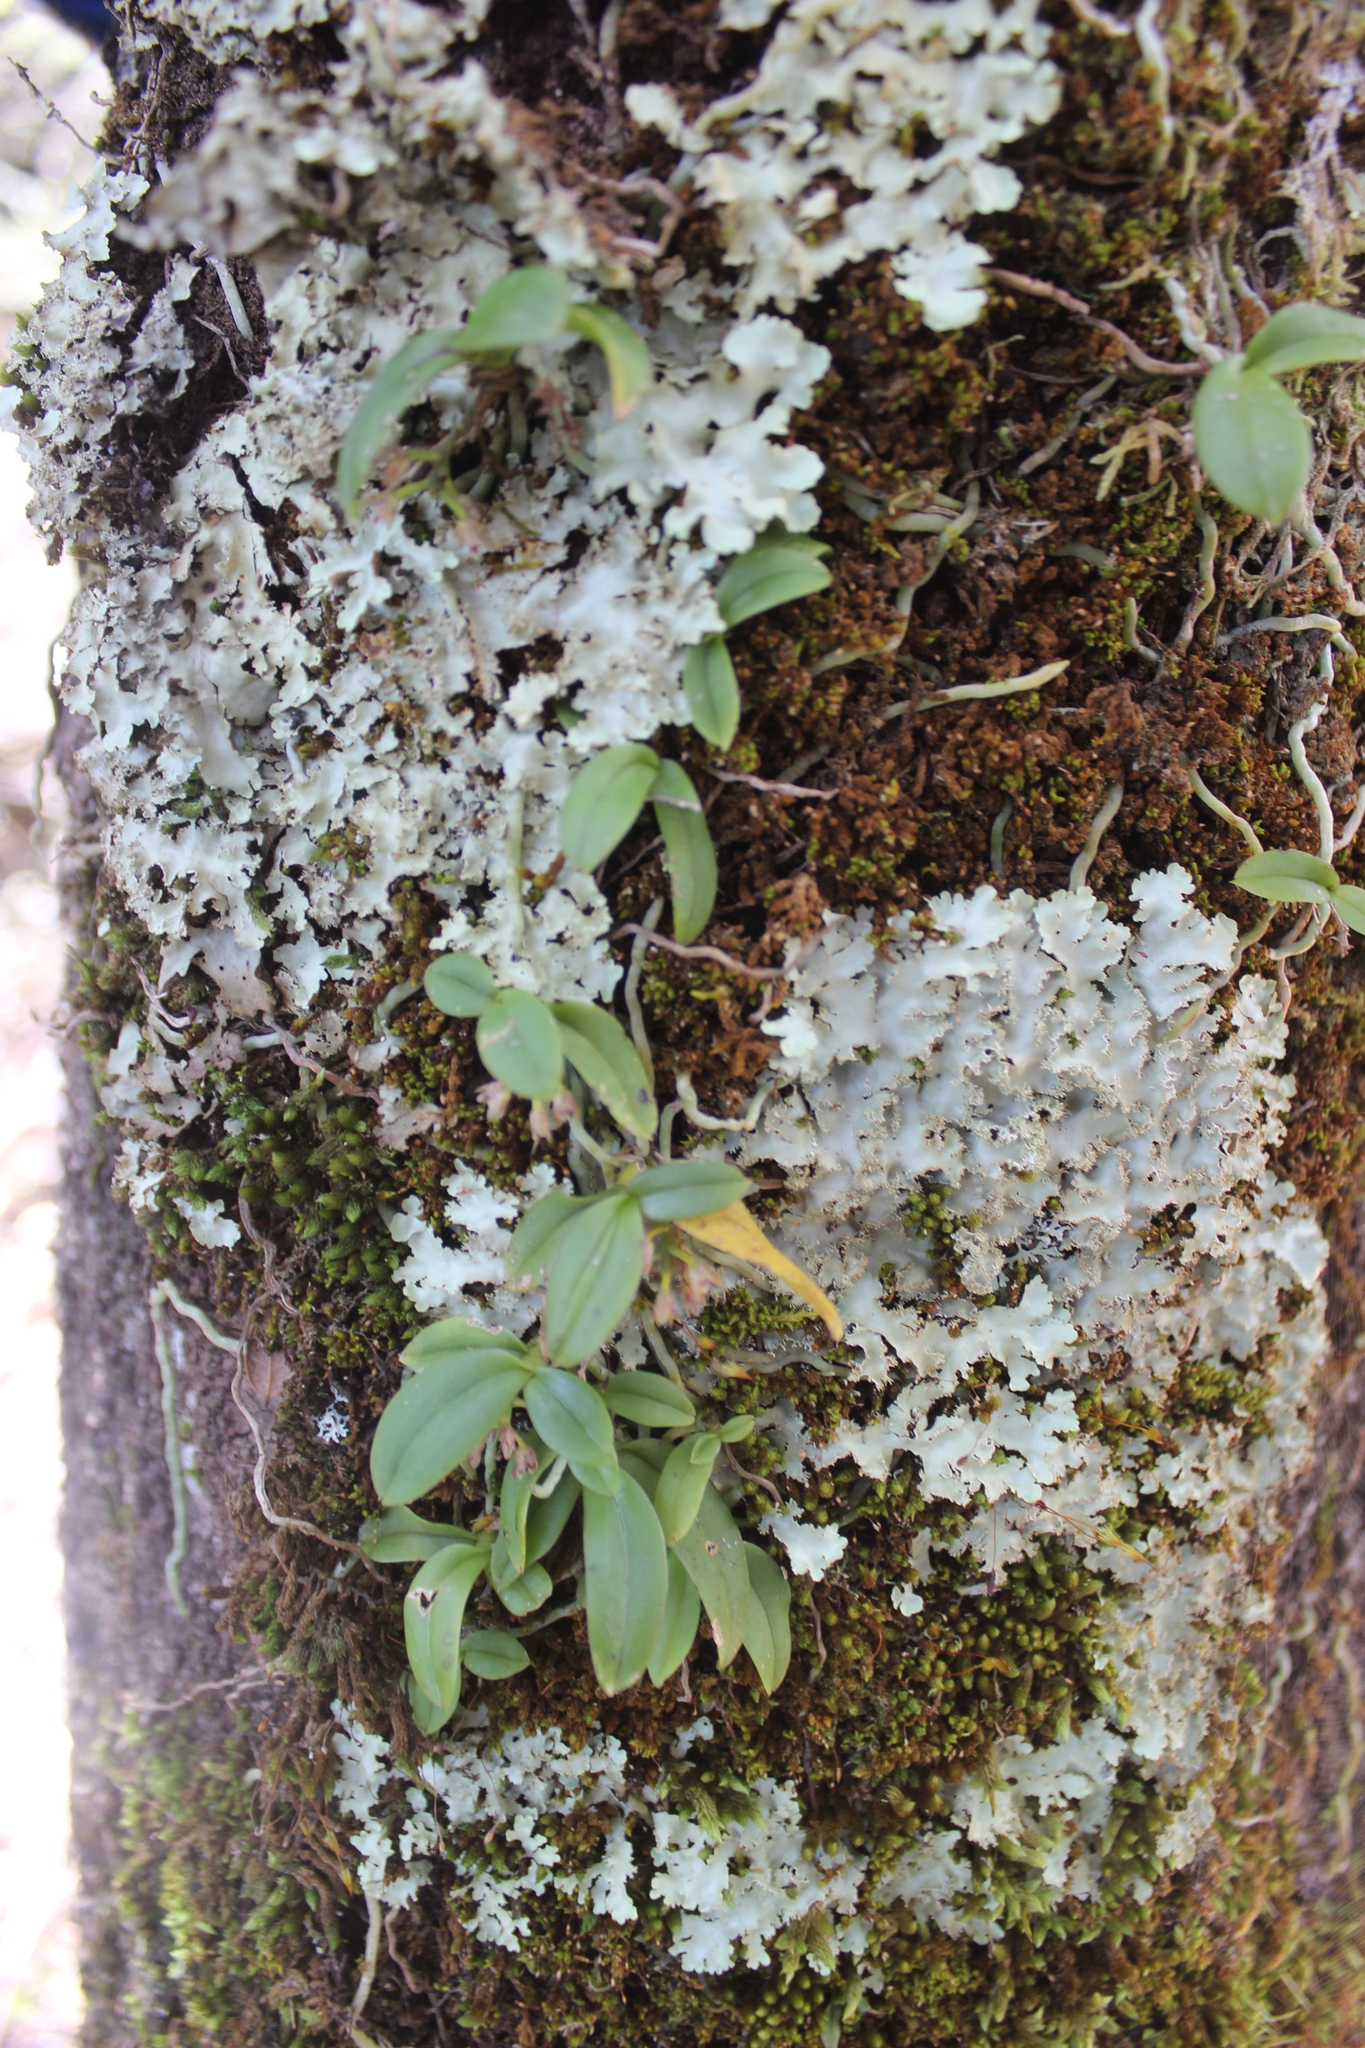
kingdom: Plantae
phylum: Tracheophyta
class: Liliopsida
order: Asparagales
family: Orchidaceae
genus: Drymoanthus
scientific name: Drymoanthus adversus
